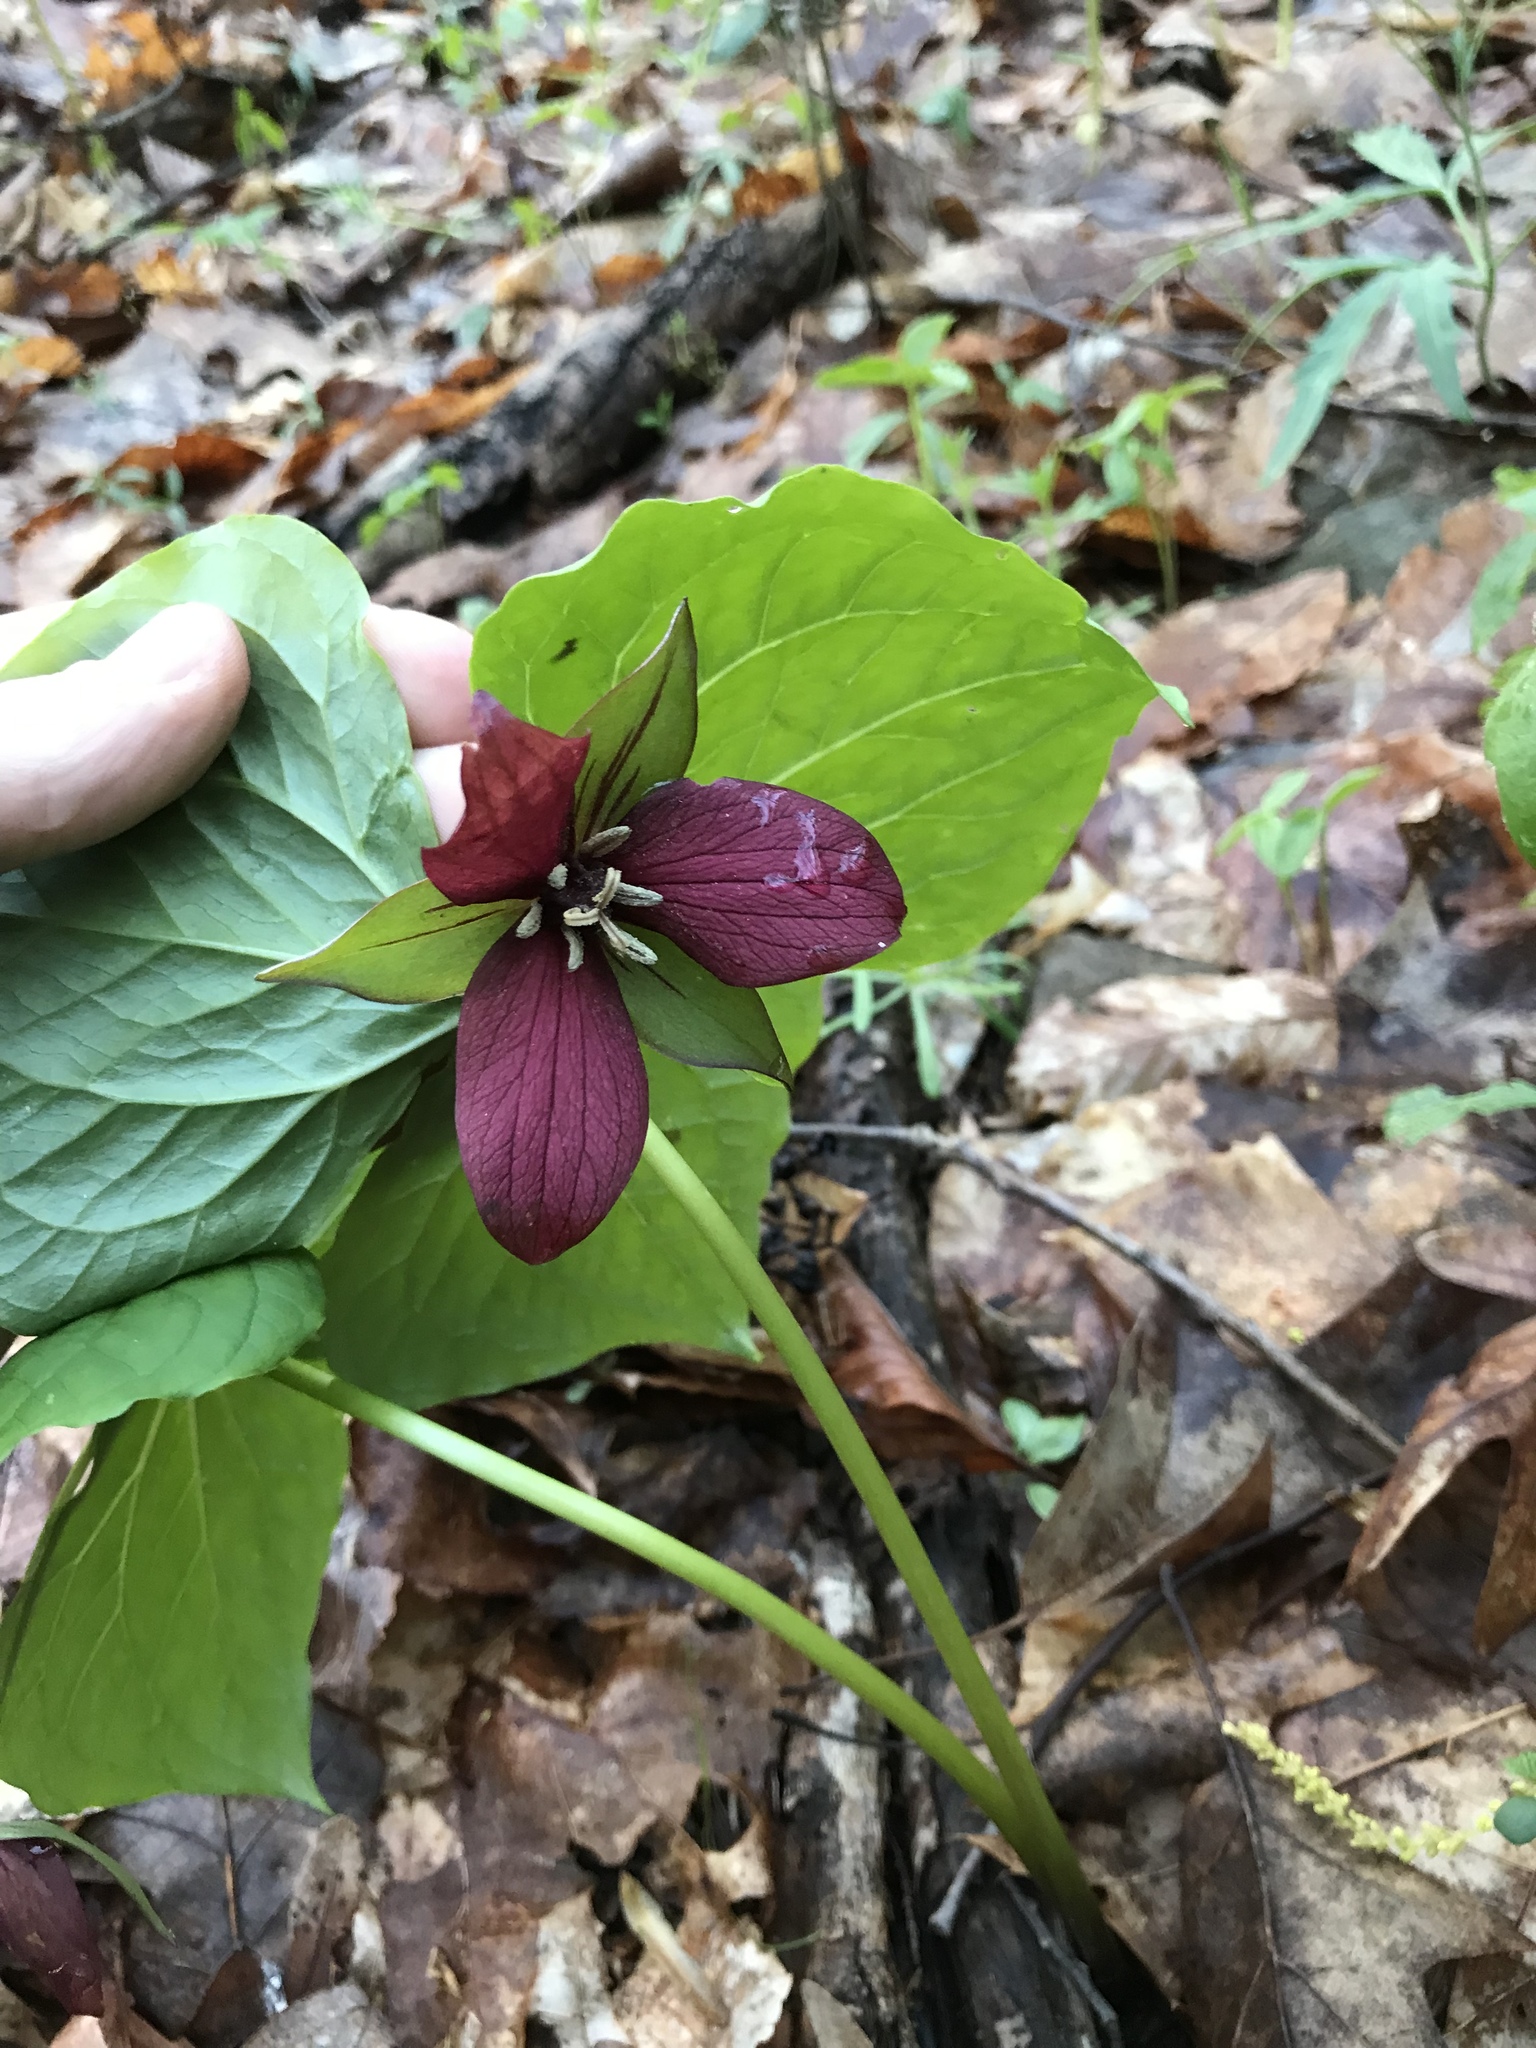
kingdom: Plantae
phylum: Tracheophyta
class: Liliopsida
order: Liliales
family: Melanthiaceae
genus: Trillium
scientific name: Trillium erectum
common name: Purple trillium
